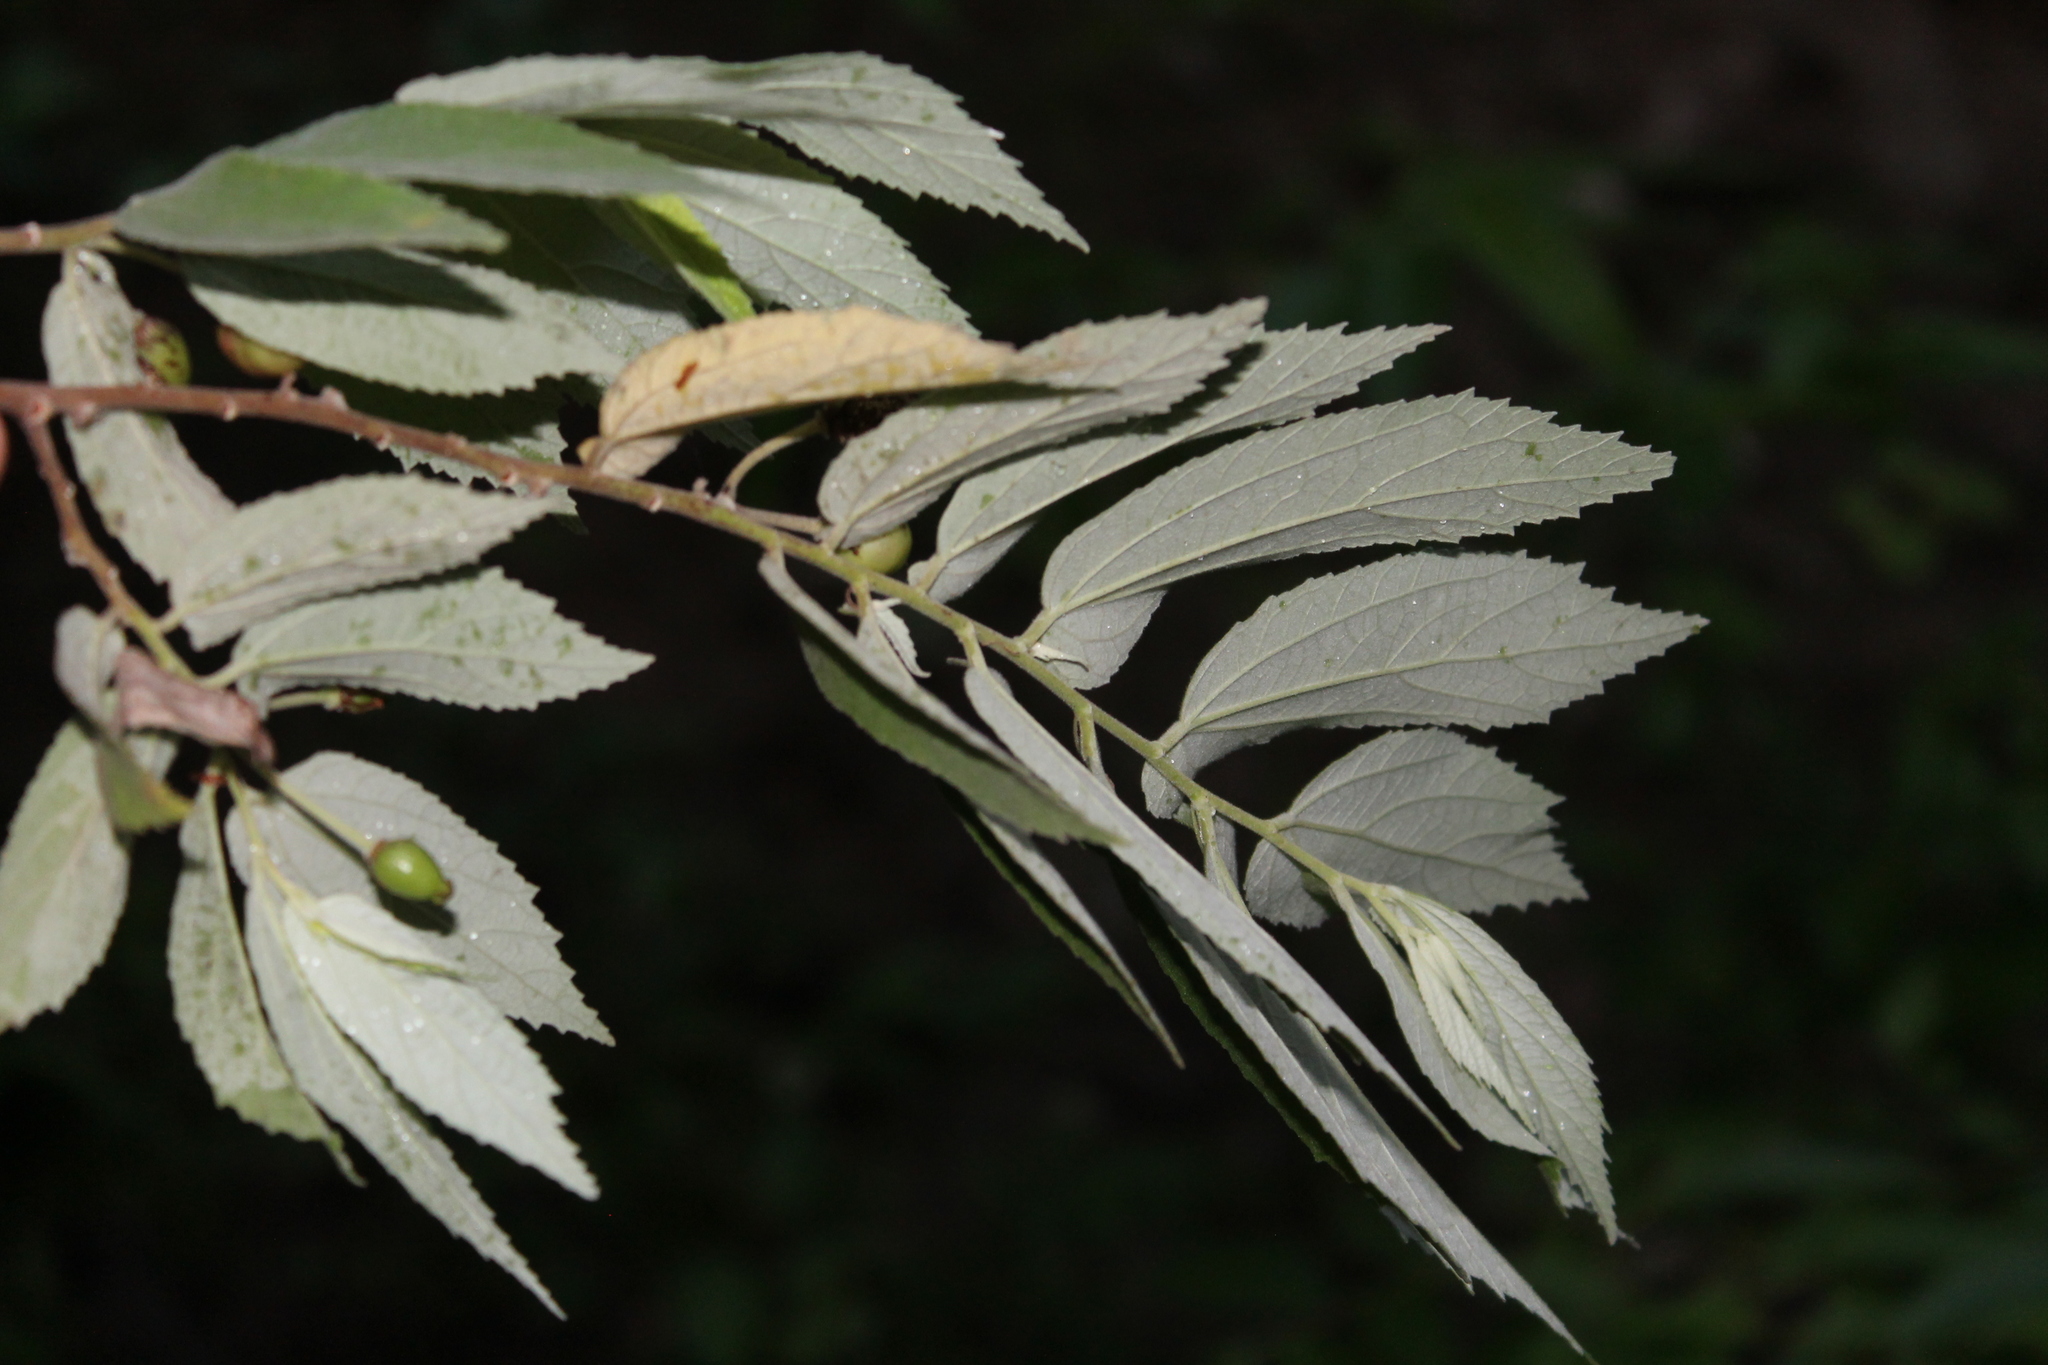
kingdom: Plantae
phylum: Tracheophyta
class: Magnoliopsida
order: Malvales
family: Muntingiaceae
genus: Muntingia
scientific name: Muntingia calabura
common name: Strawberrytree
